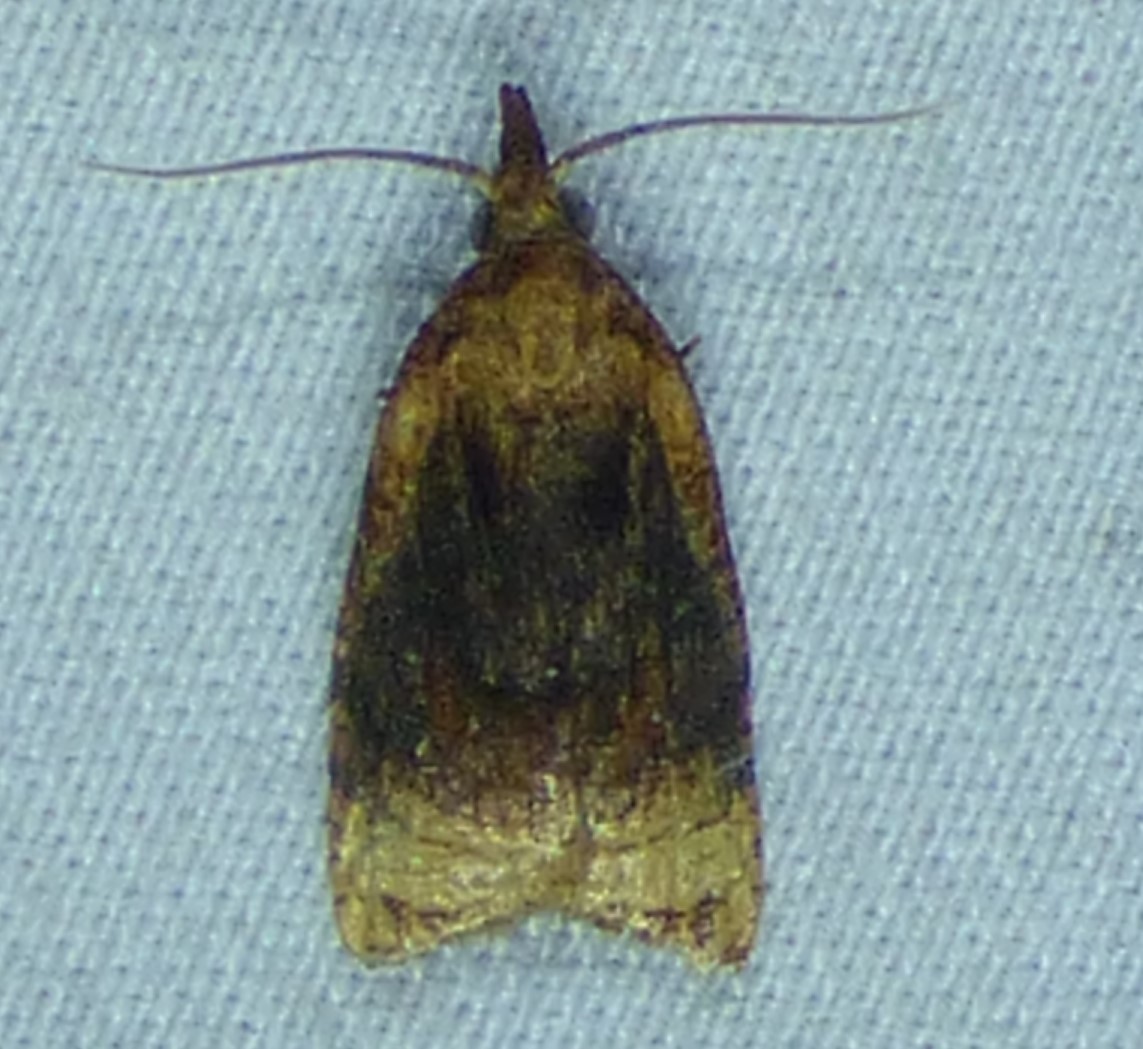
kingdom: Animalia
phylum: Arthropoda
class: Insecta
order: Lepidoptera
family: Tortricidae
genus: Platynota
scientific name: Platynota flavedana
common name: Black-shaded platynota moth
